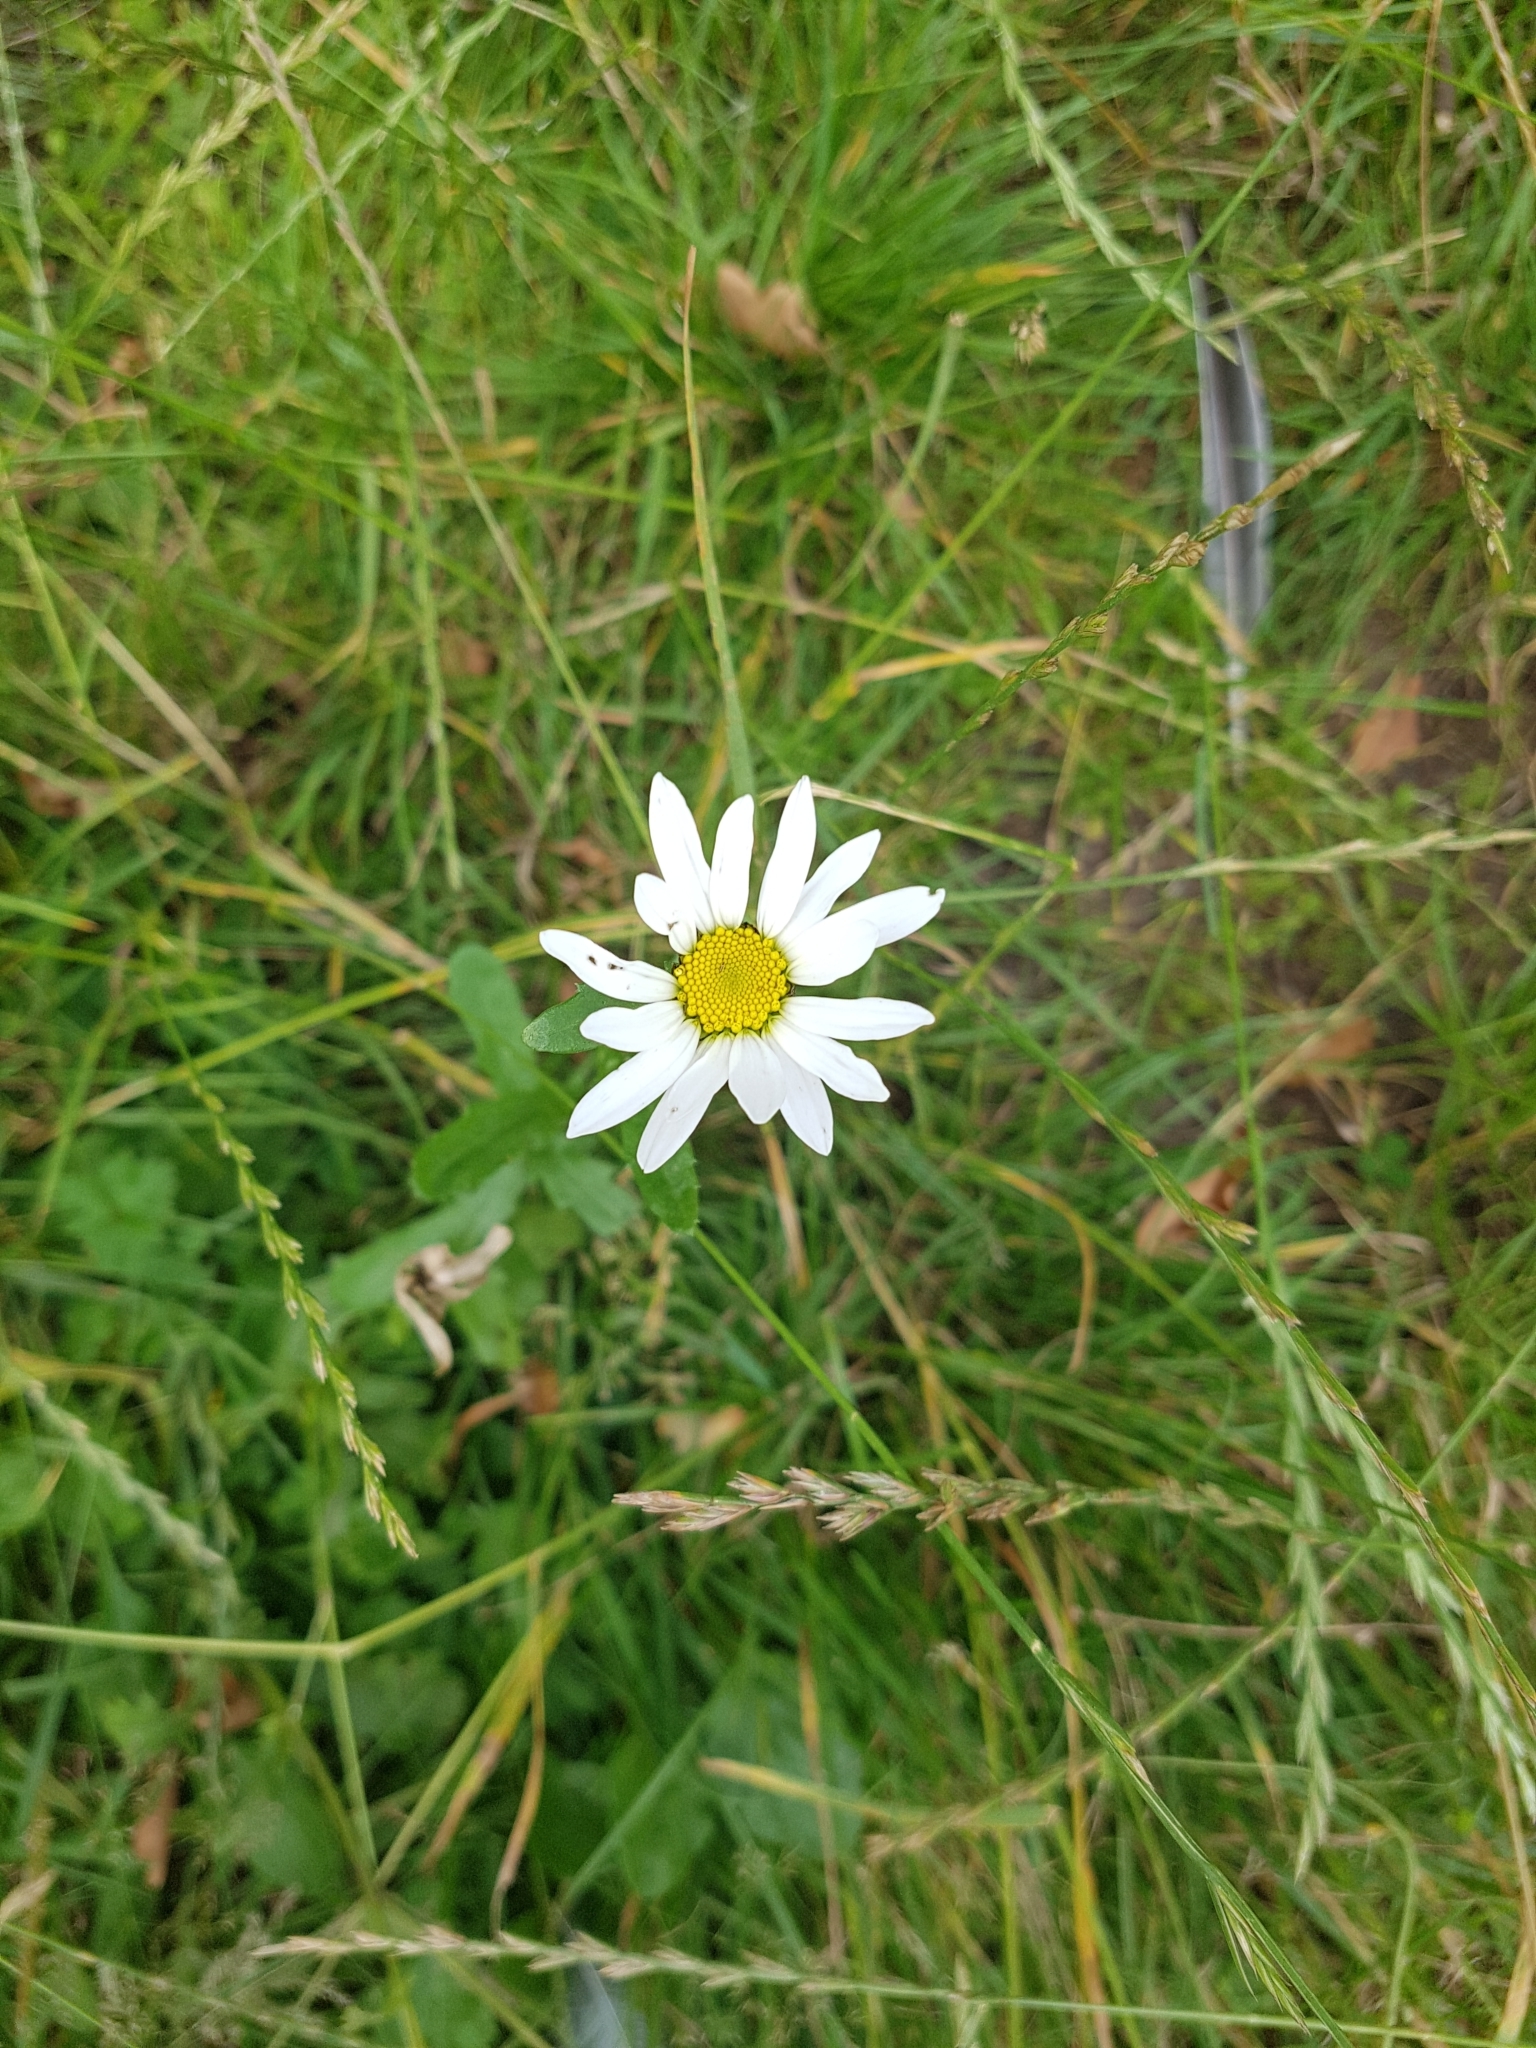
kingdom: Plantae
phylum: Tracheophyta
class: Magnoliopsida
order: Asterales
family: Asteraceae
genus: Leucanthemum
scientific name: Leucanthemum vulgare
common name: Oxeye daisy
